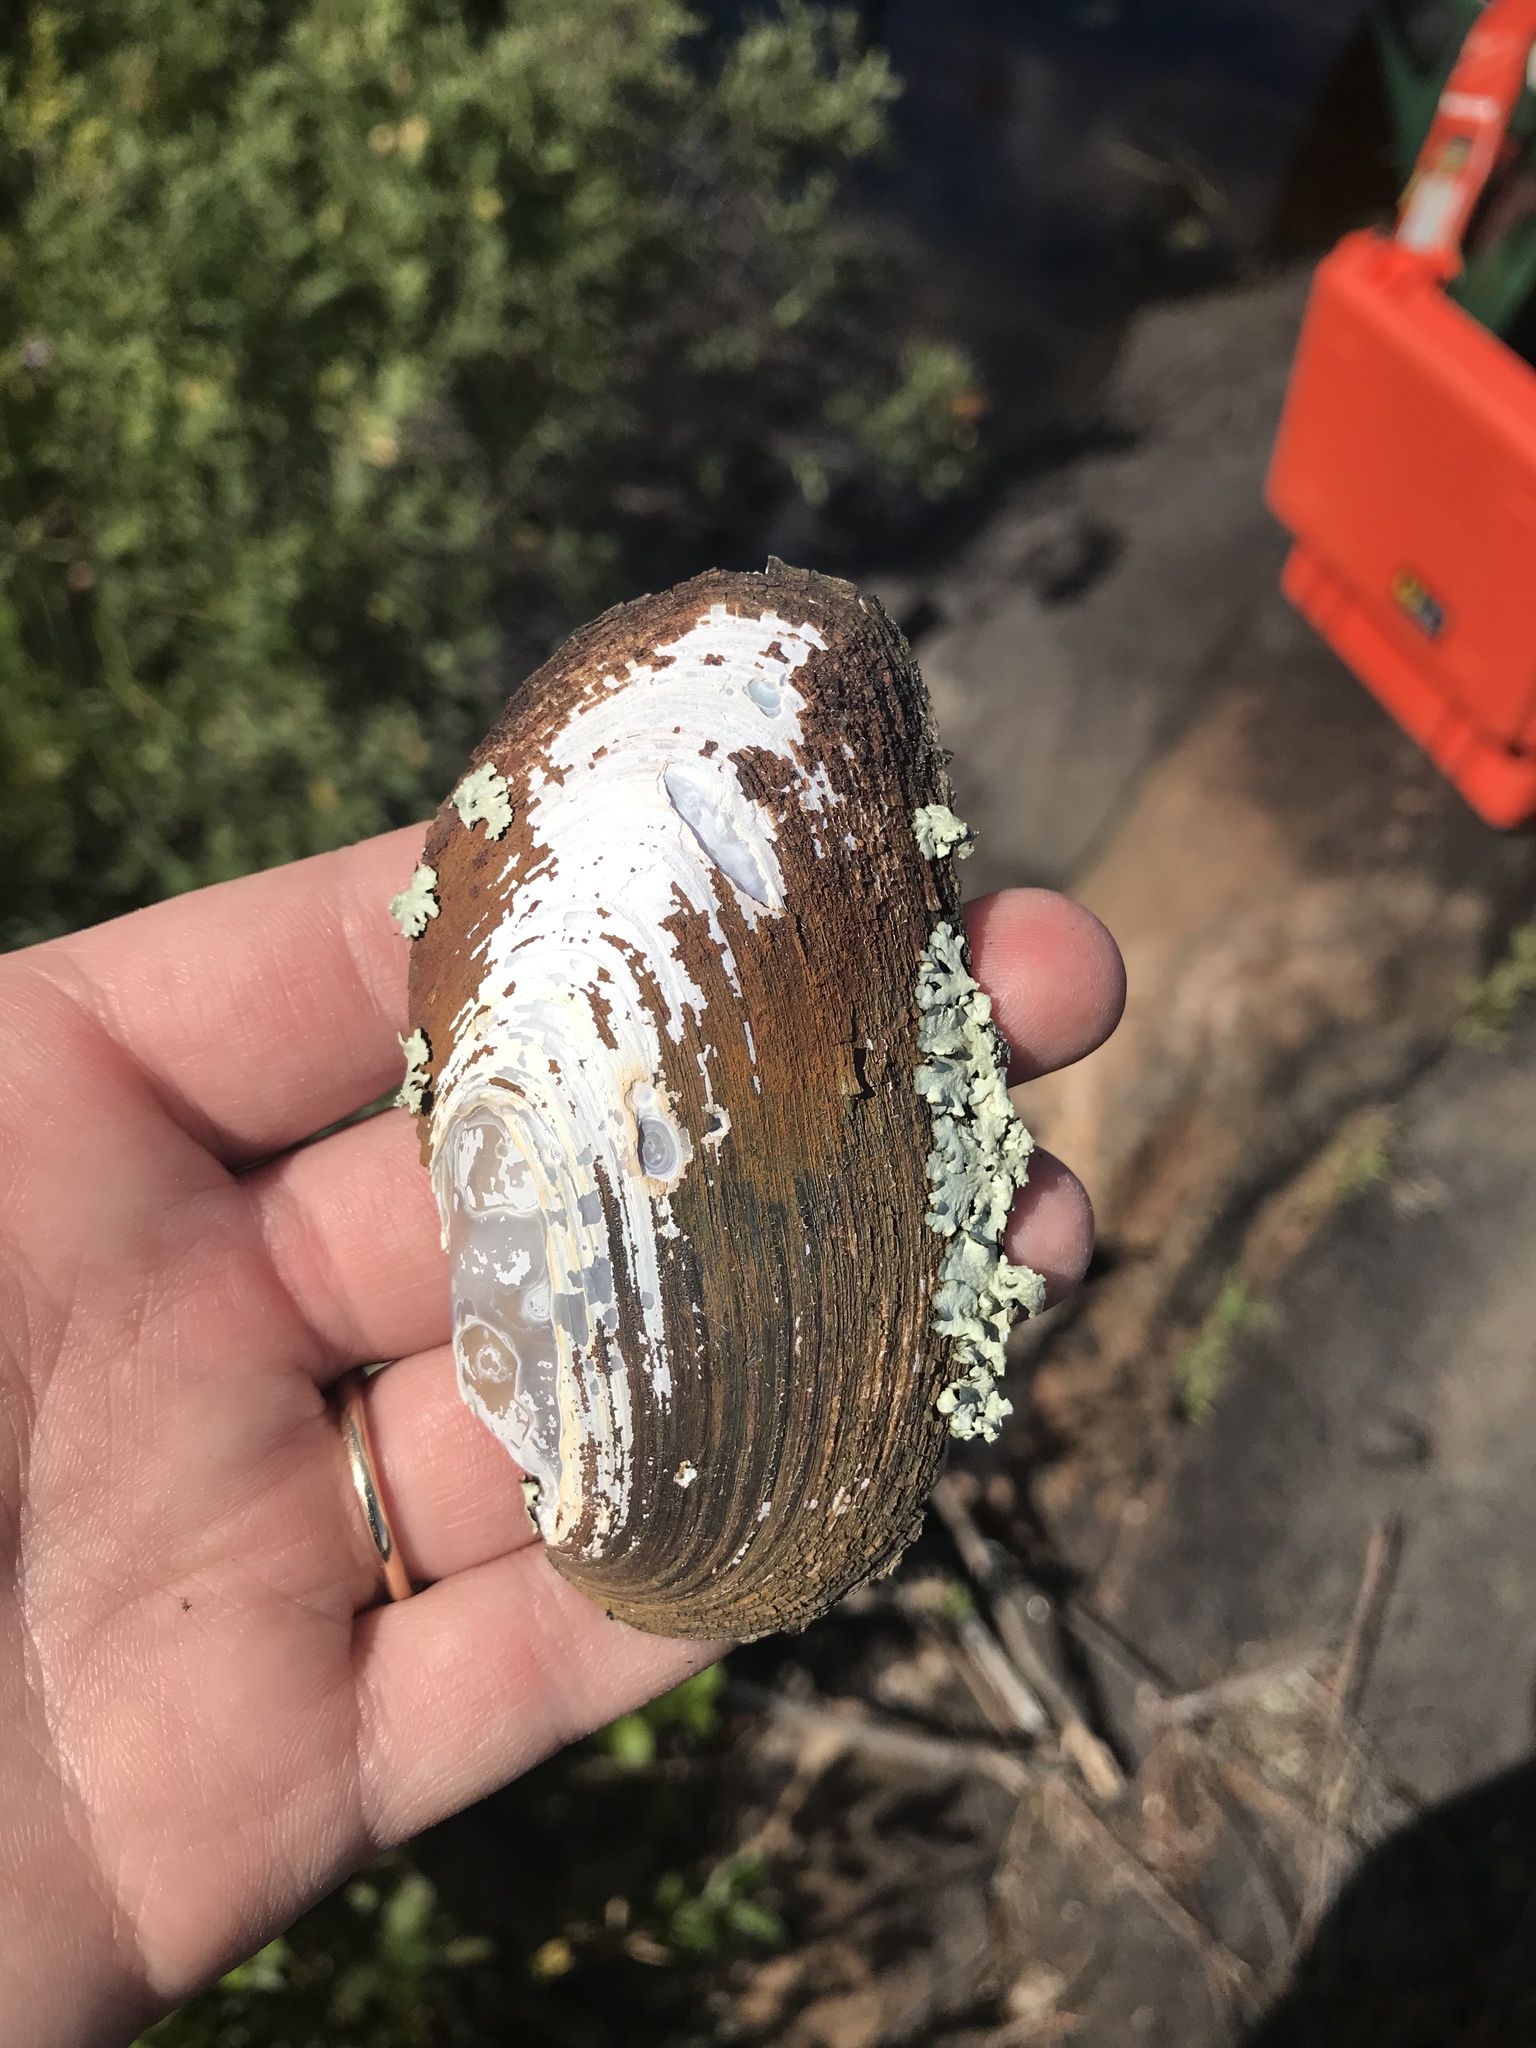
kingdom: Animalia
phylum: Mollusca
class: Bivalvia
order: Unionida
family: Unionidae
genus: Elliptio
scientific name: Elliptio complanata
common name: Eastern elliptio
